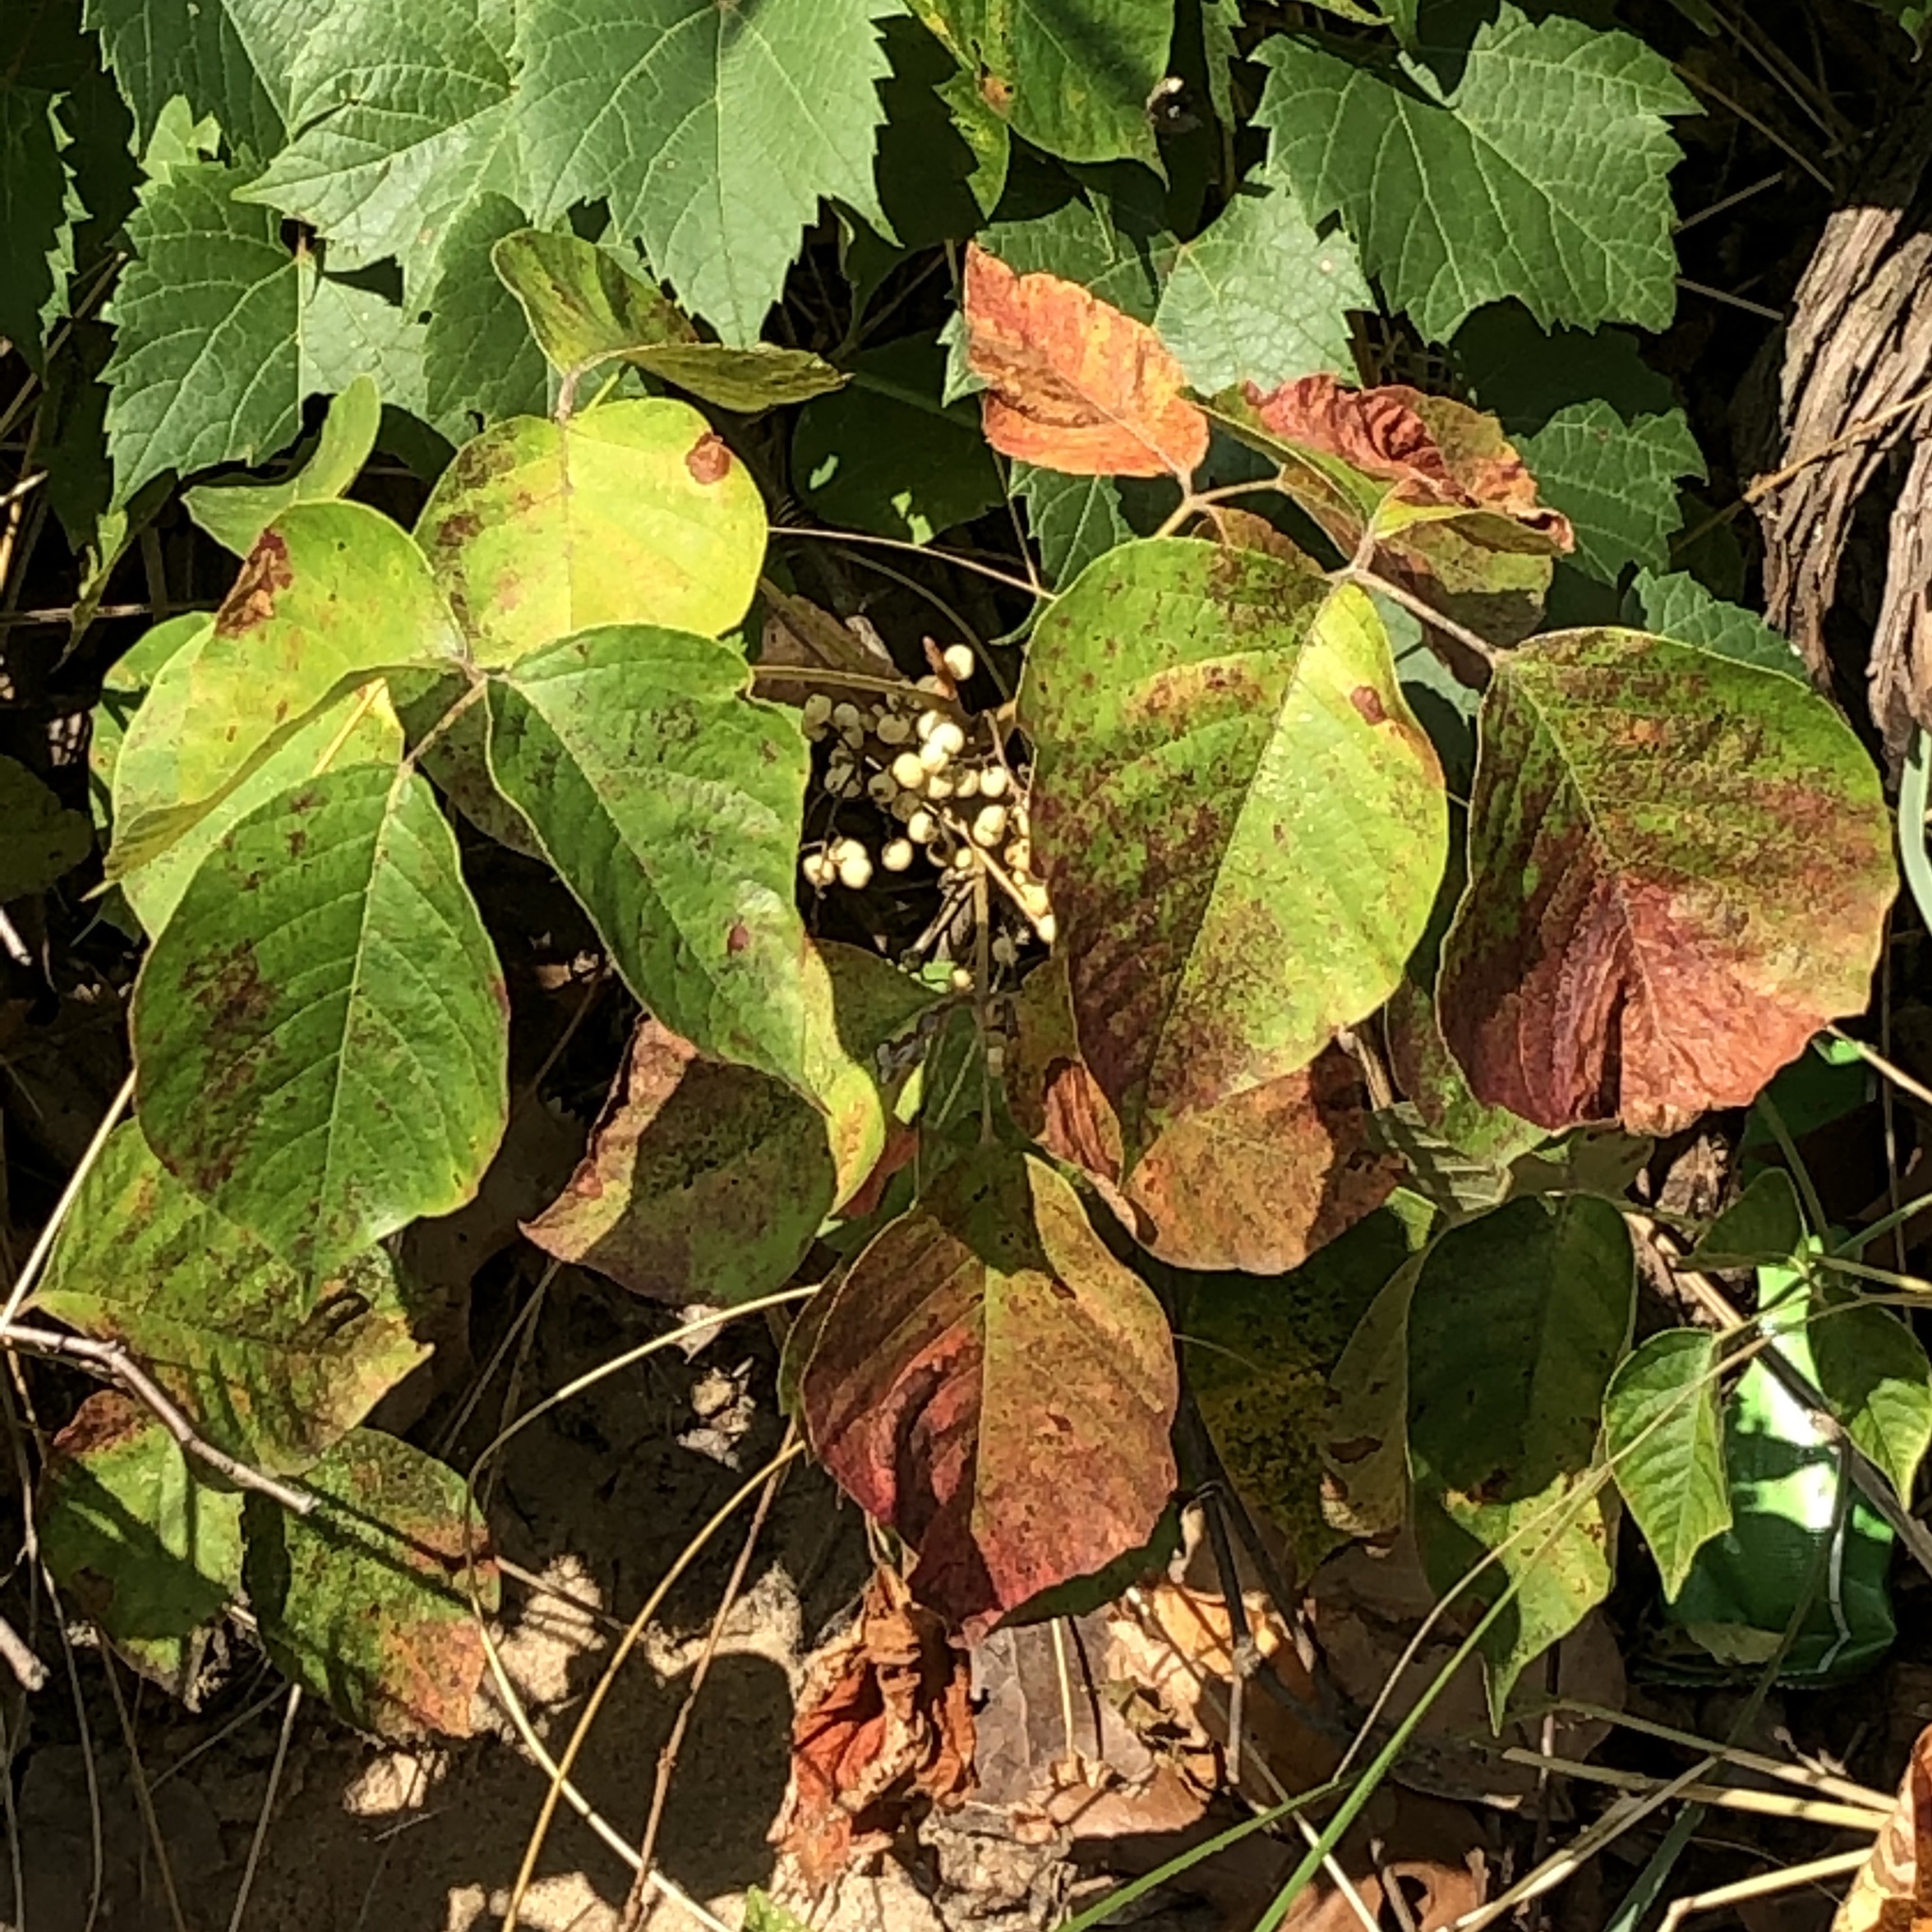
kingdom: Plantae
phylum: Tracheophyta
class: Magnoliopsida
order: Sapindales
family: Anacardiaceae
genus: Toxicodendron
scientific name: Toxicodendron radicans
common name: Poison ivy
